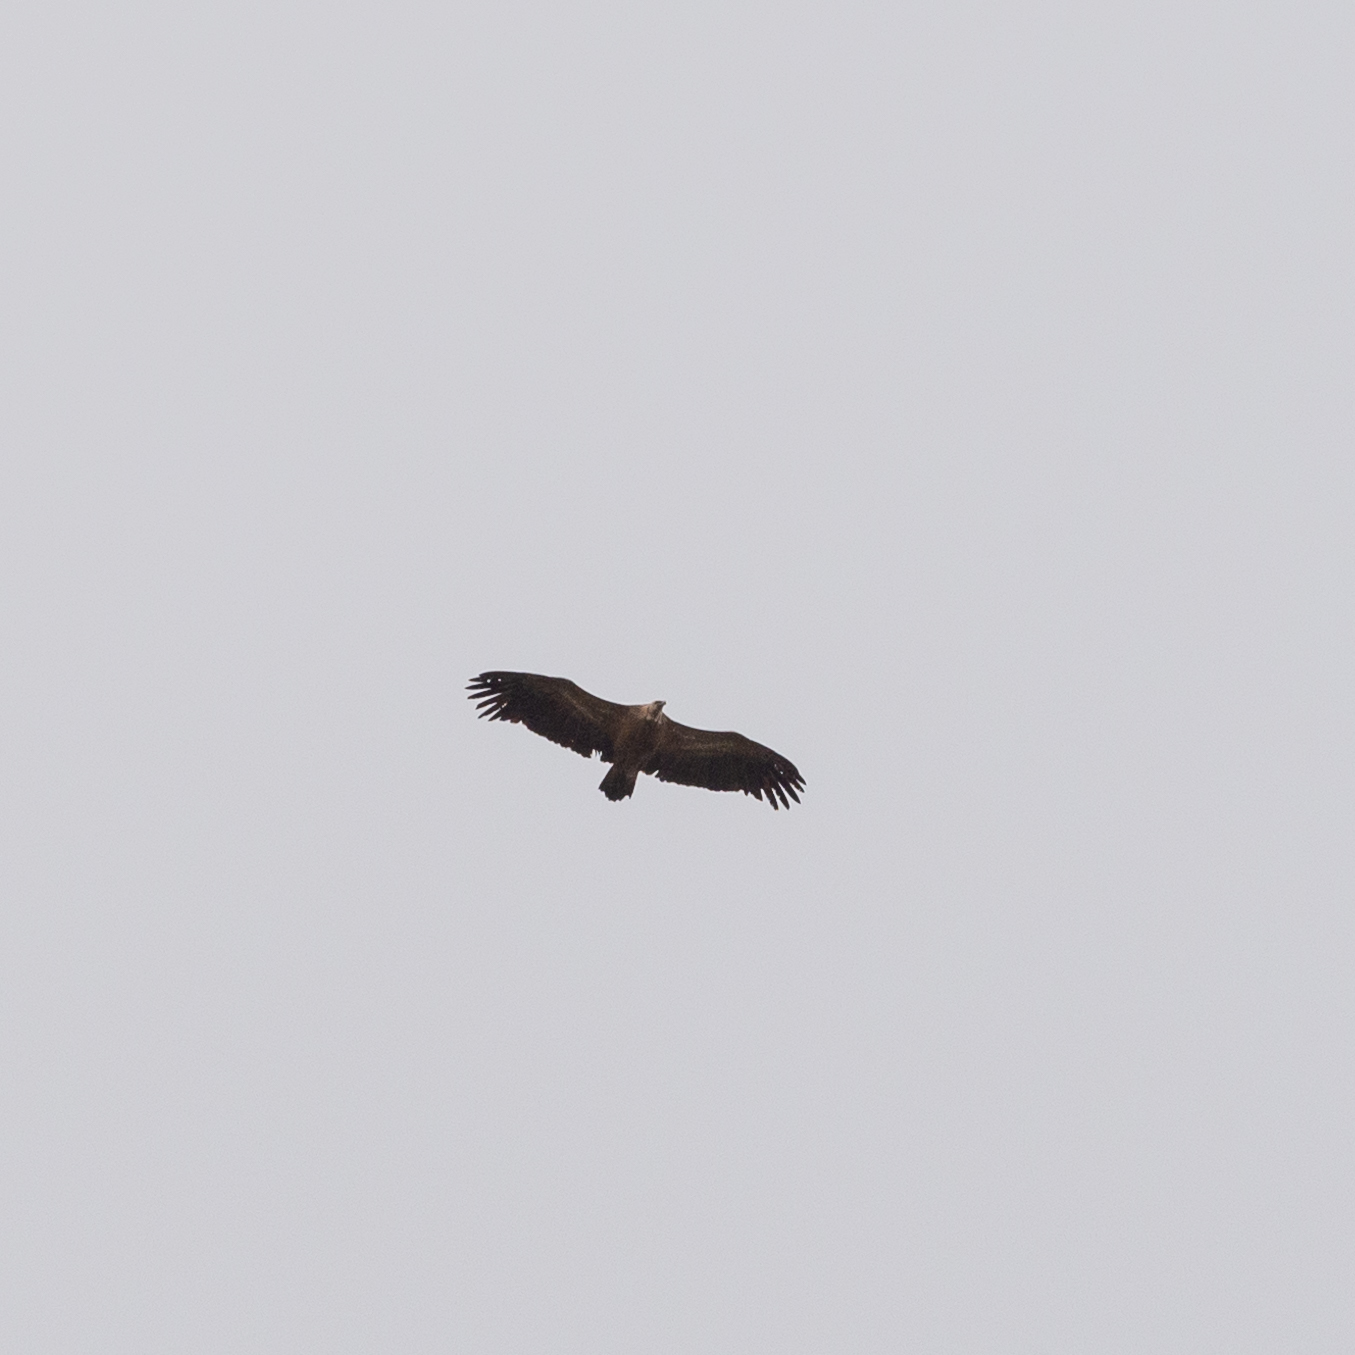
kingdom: Animalia
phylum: Chordata
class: Aves
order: Accipitriformes
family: Accipitridae
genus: Gyps
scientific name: Gyps fulvus
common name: Griffon vulture
